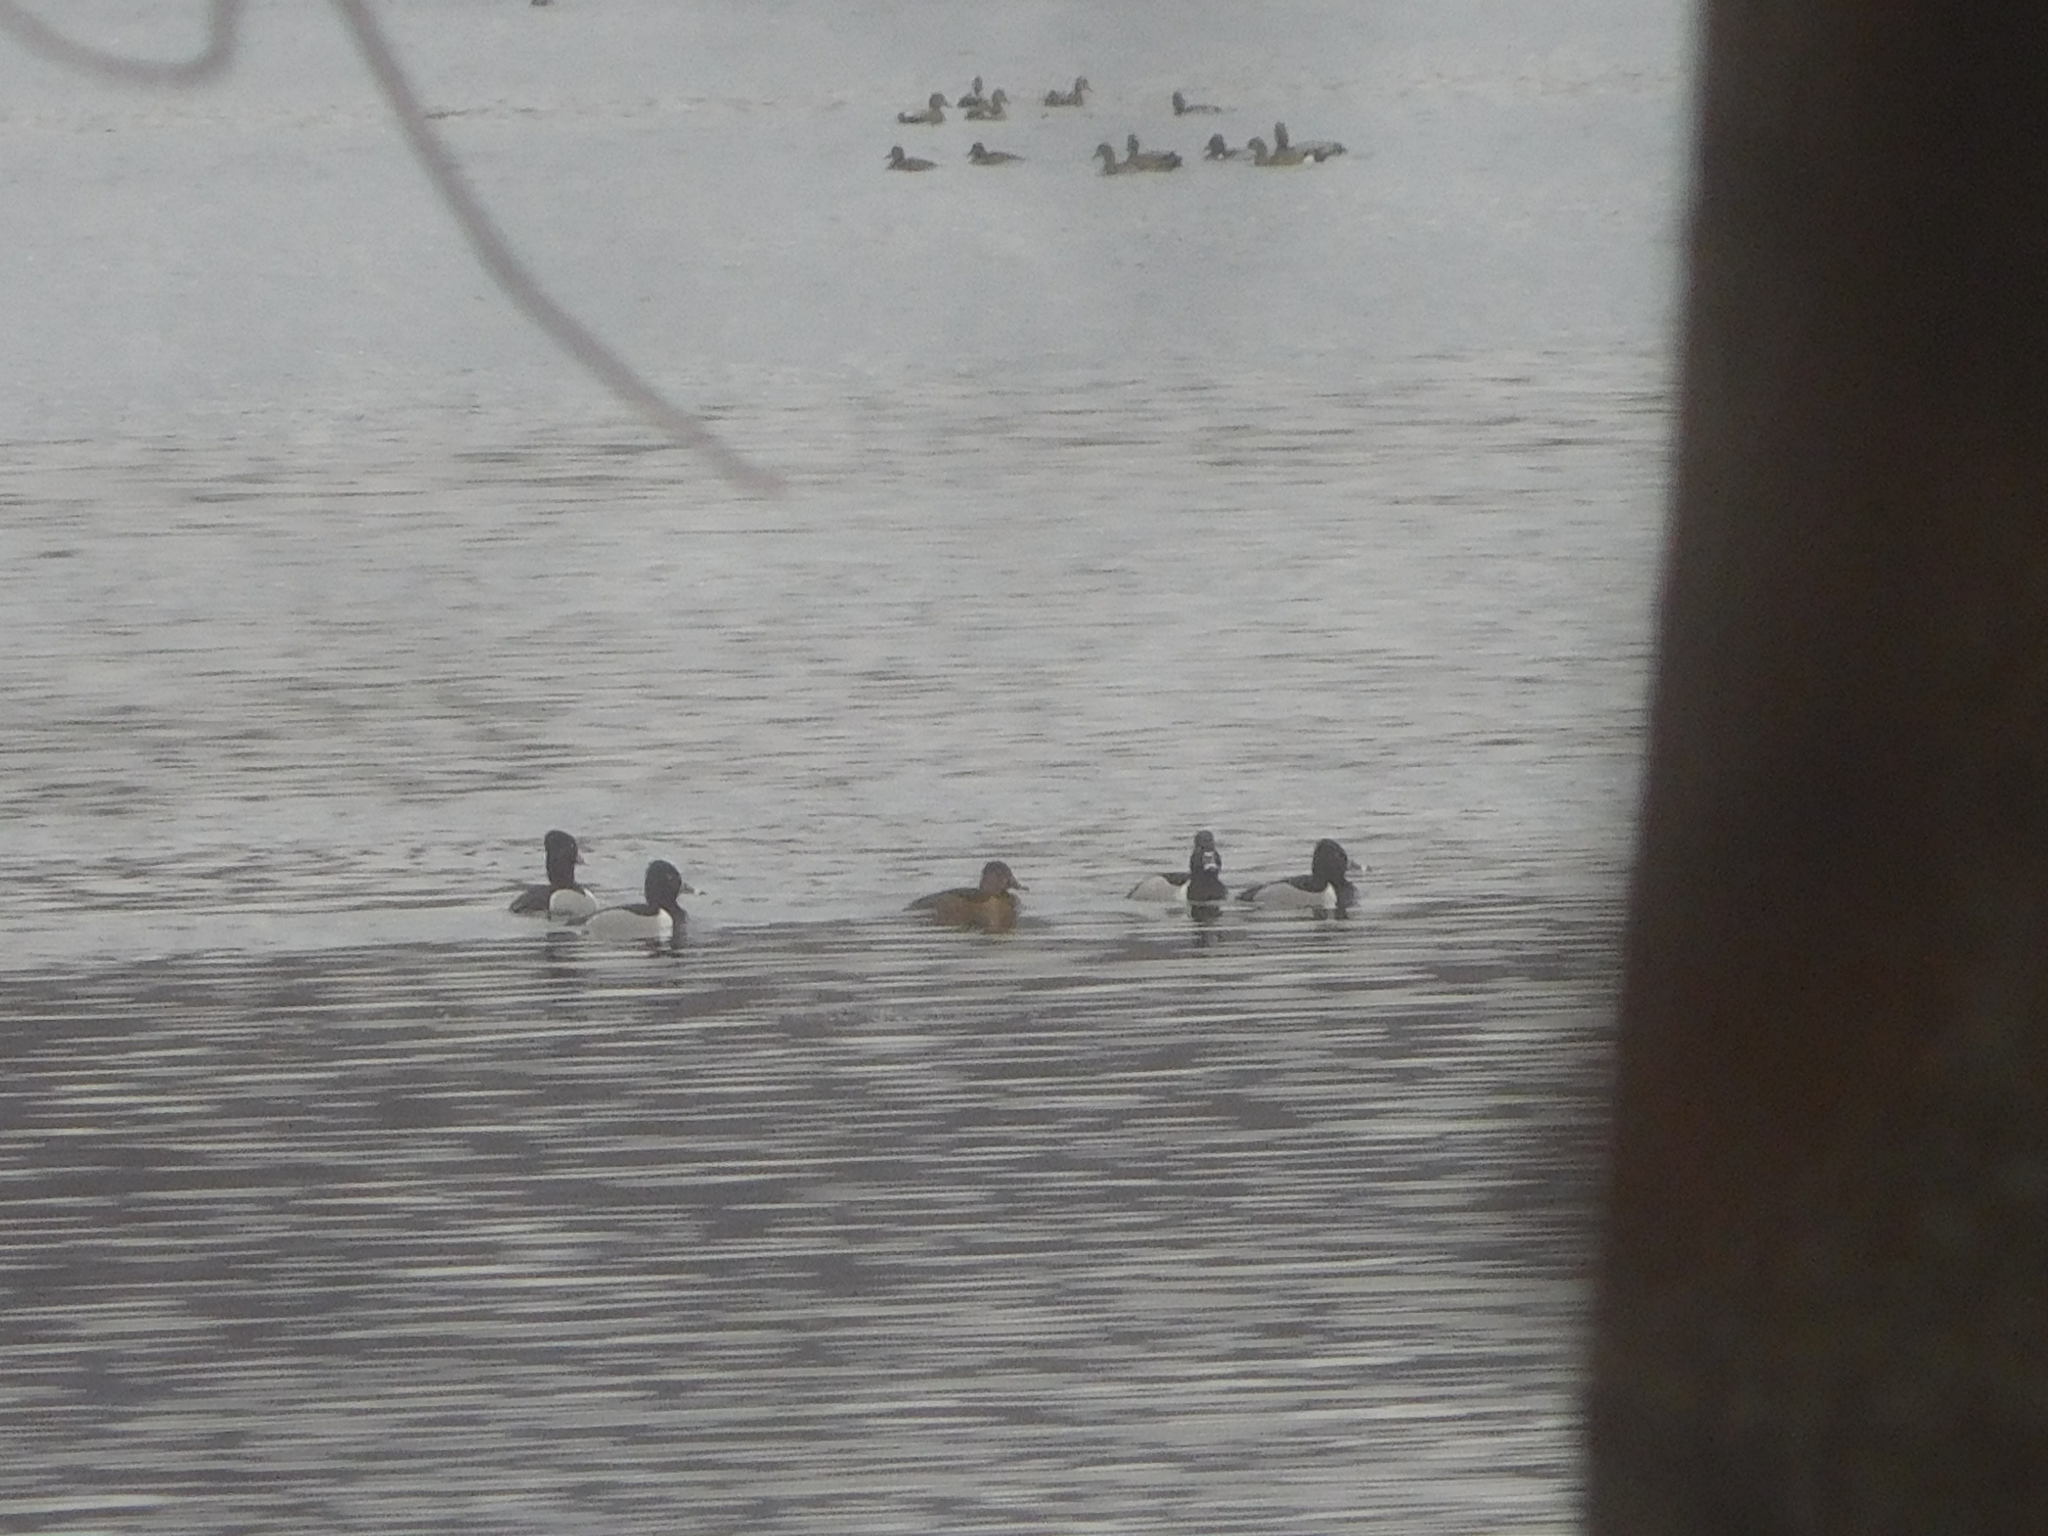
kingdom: Animalia
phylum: Chordata
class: Aves
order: Anseriformes
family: Anatidae
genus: Aythya
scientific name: Aythya collaris
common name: Ring-necked duck
